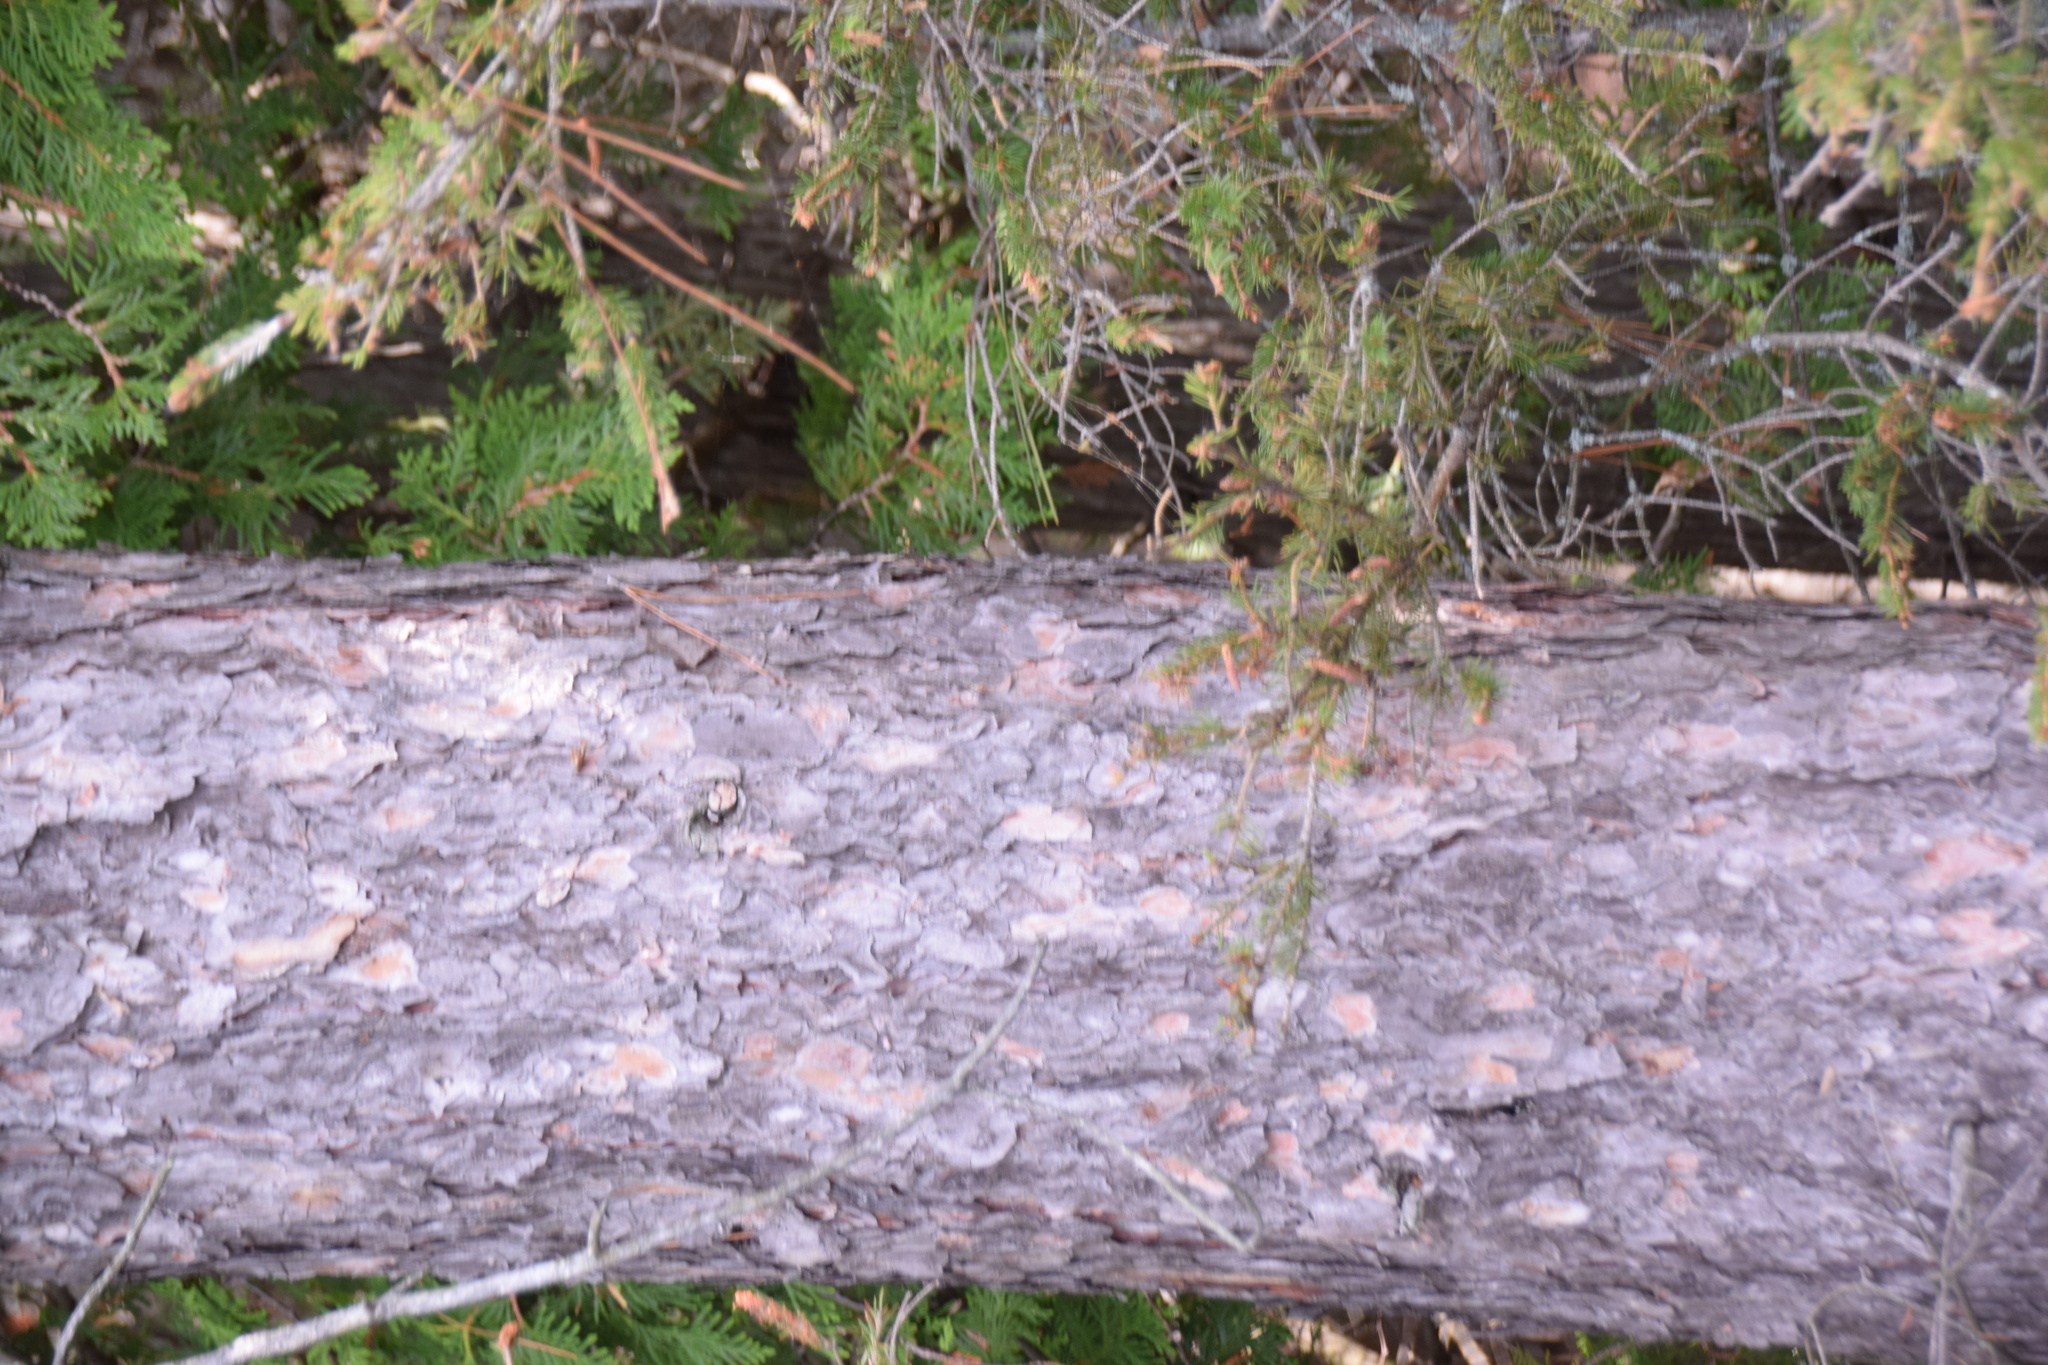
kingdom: Plantae
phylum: Tracheophyta
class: Pinopsida
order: Pinales
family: Pinaceae
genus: Pinus
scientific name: Pinus resinosa
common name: Norway pine
